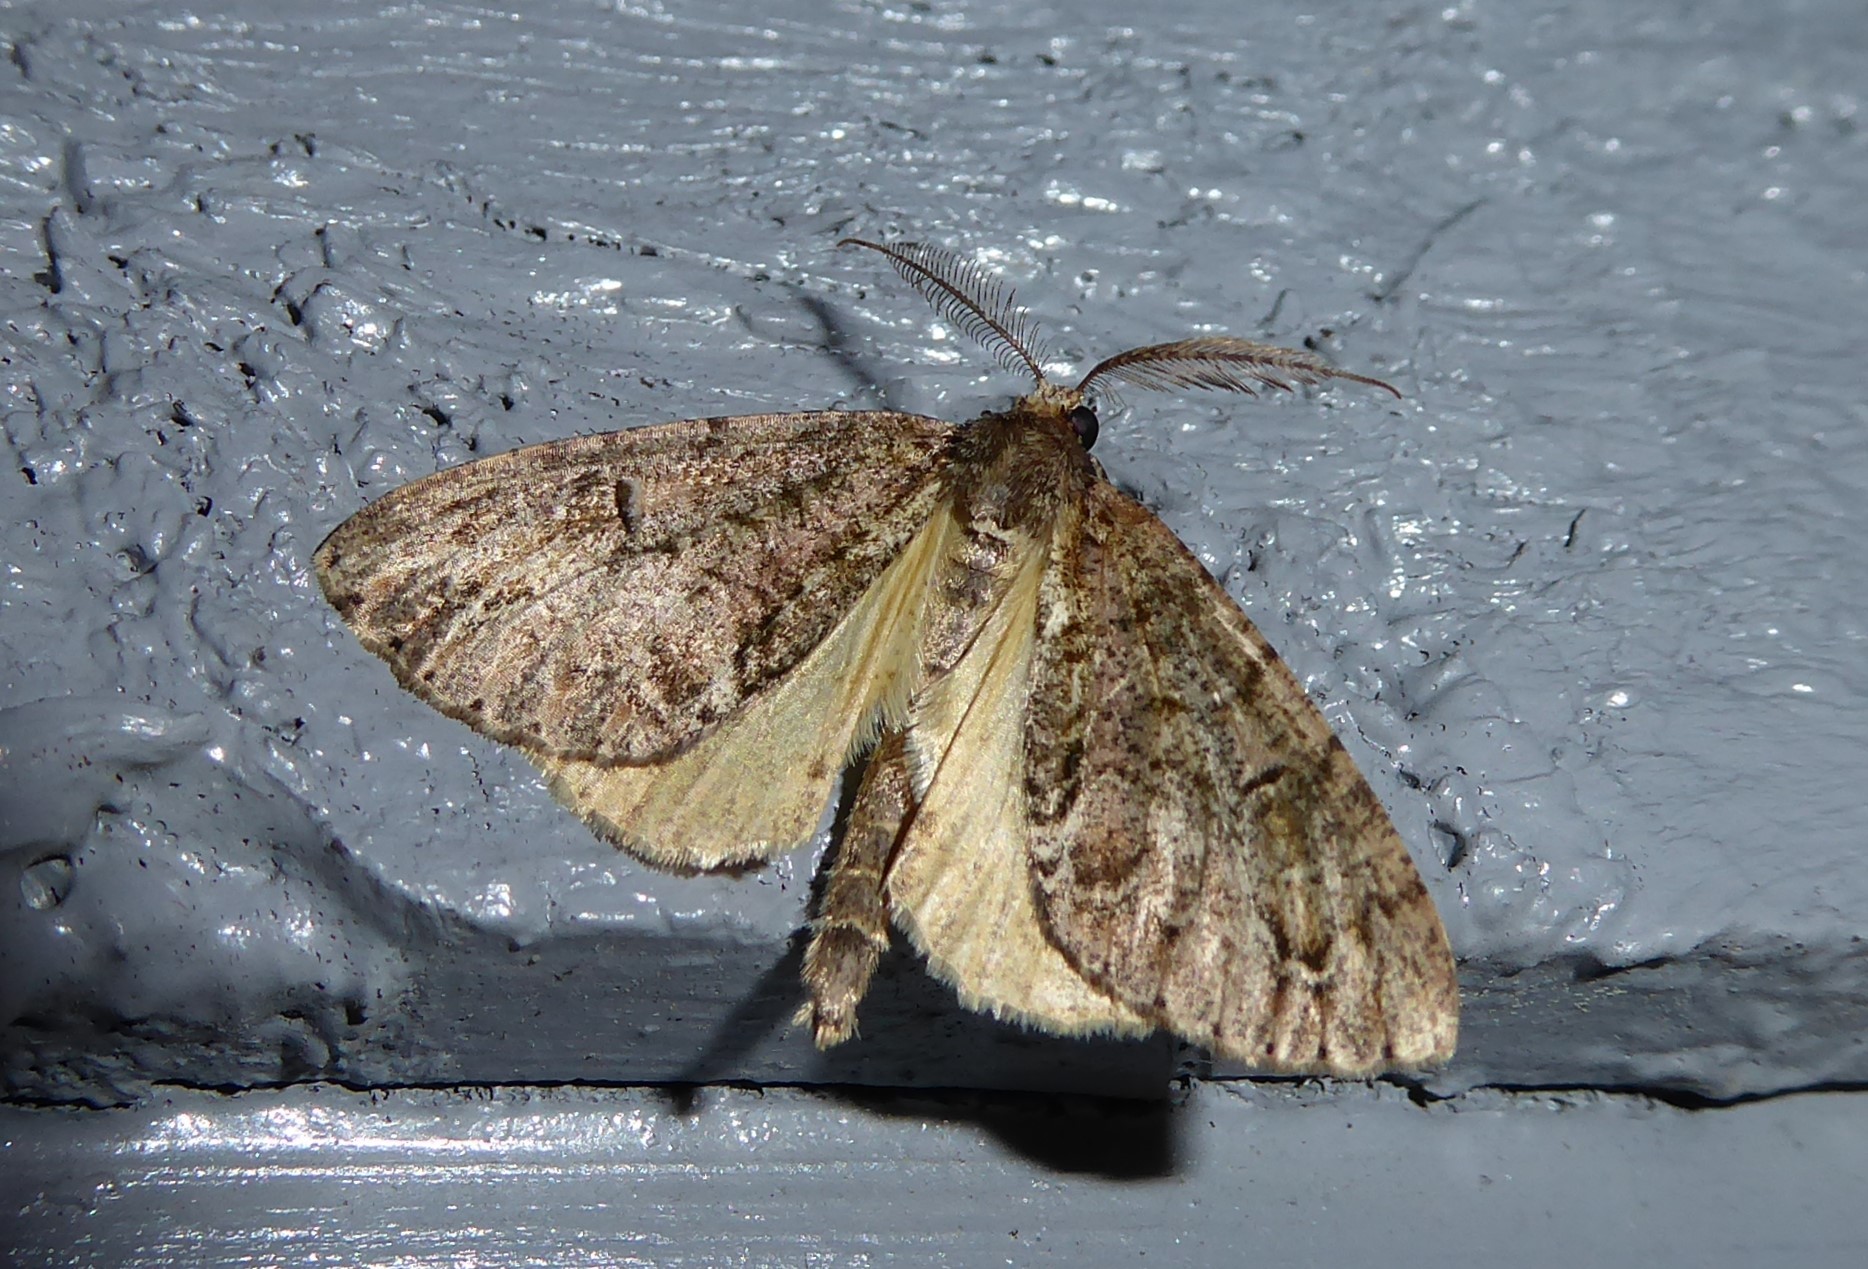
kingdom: Animalia
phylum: Arthropoda
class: Insecta
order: Lepidoptera
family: Geometridae
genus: Pseudocoremia
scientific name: Pseudocoremia suavis
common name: Common forest looper
